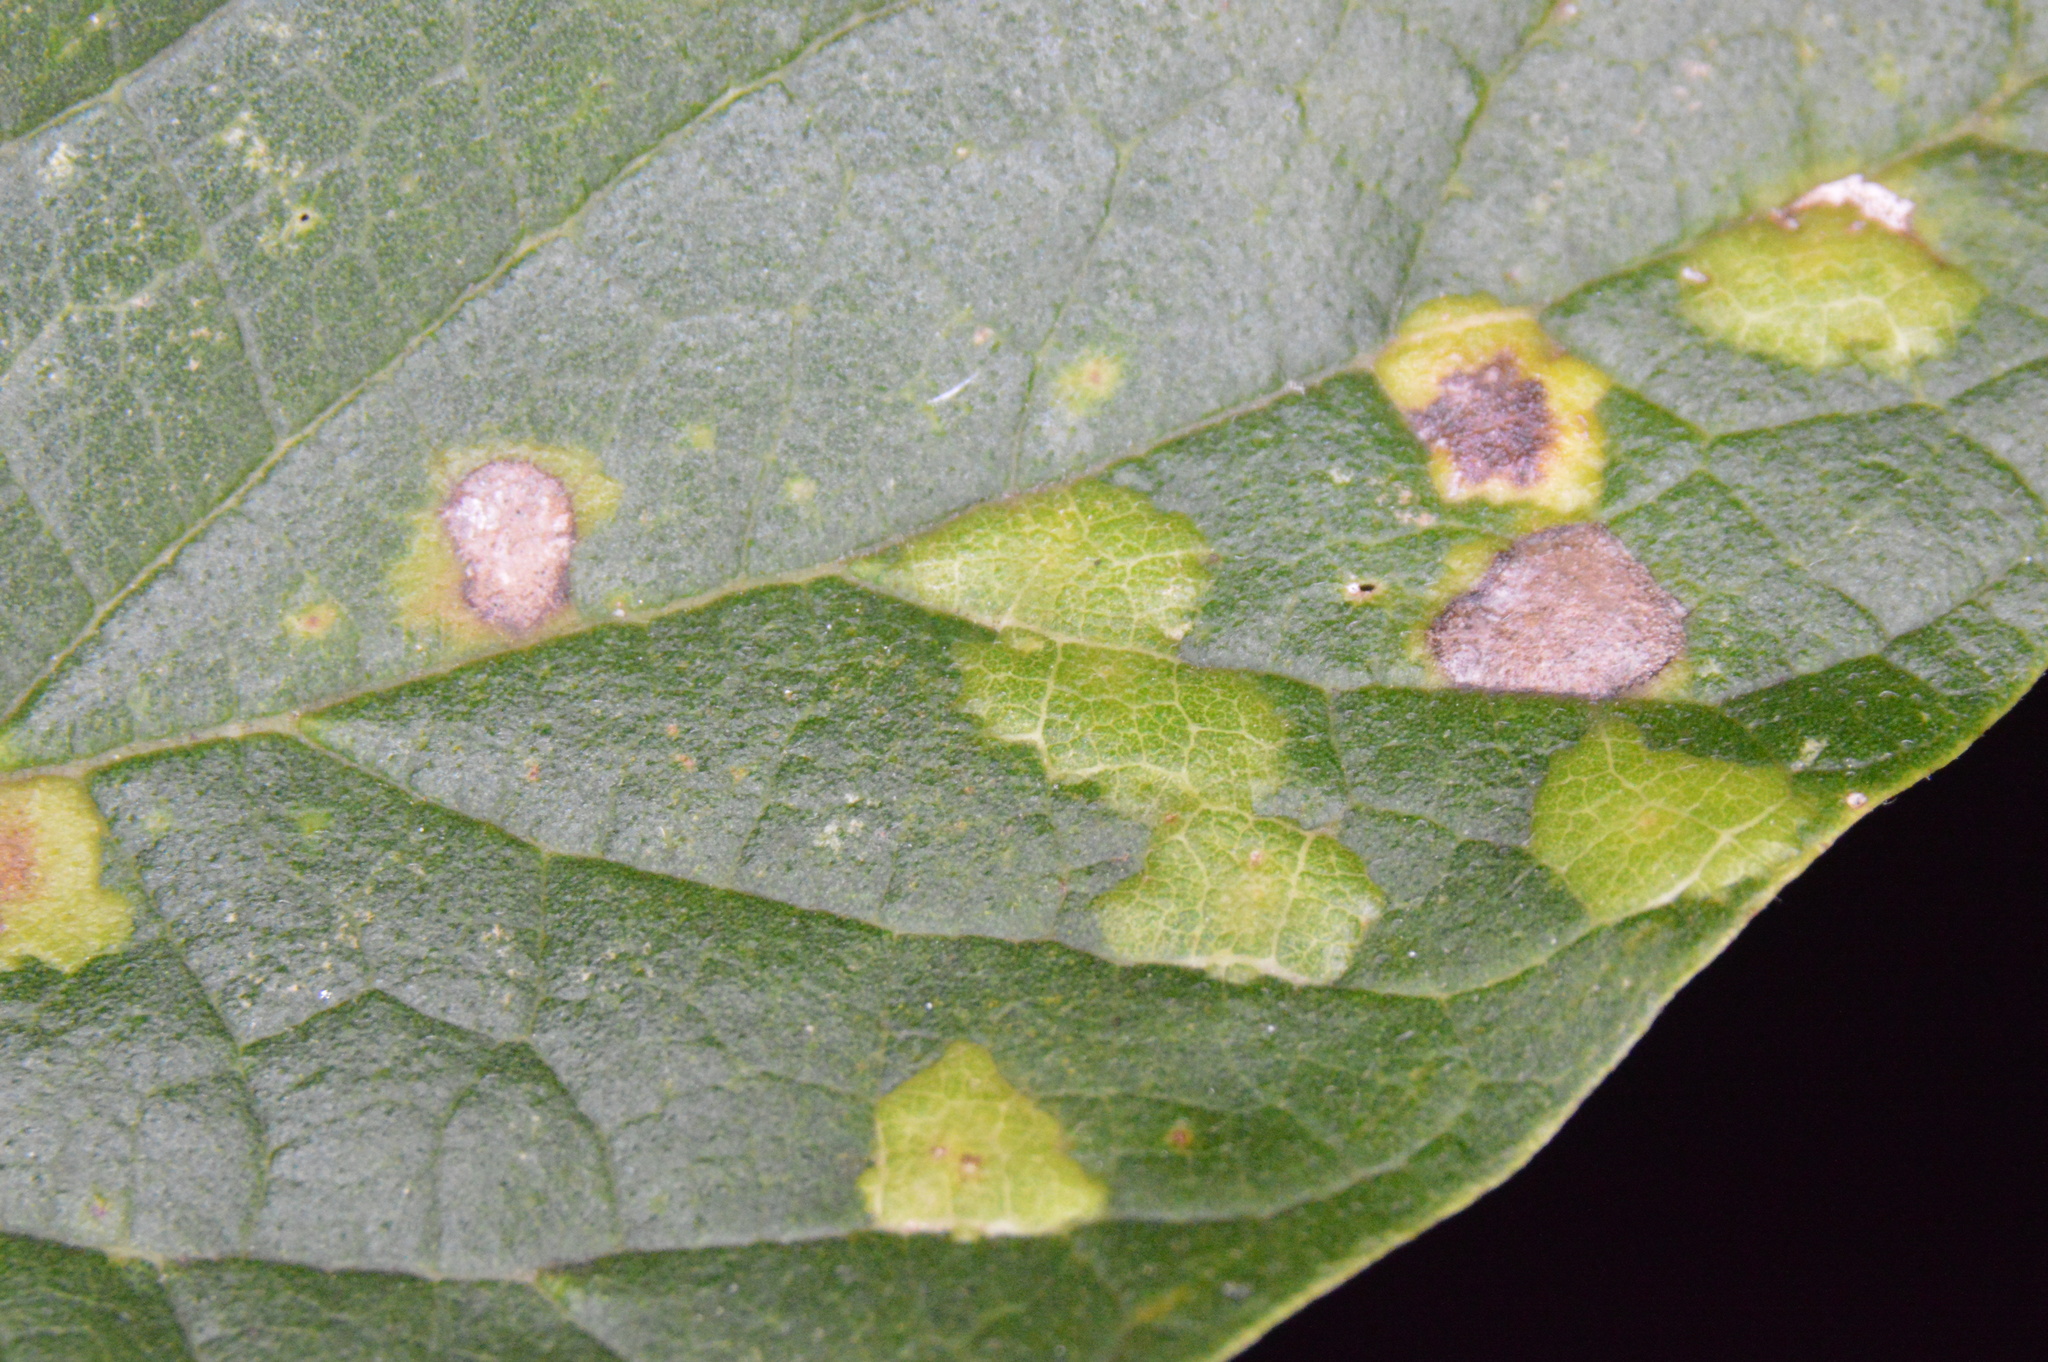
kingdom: Animalia
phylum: Arthropoda
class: Insecta
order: Hemiptera
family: Aphalaridae
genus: Pachypsylla
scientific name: Pachypsylla celtidisvesicula
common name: Hackberry blister gall psyllid
